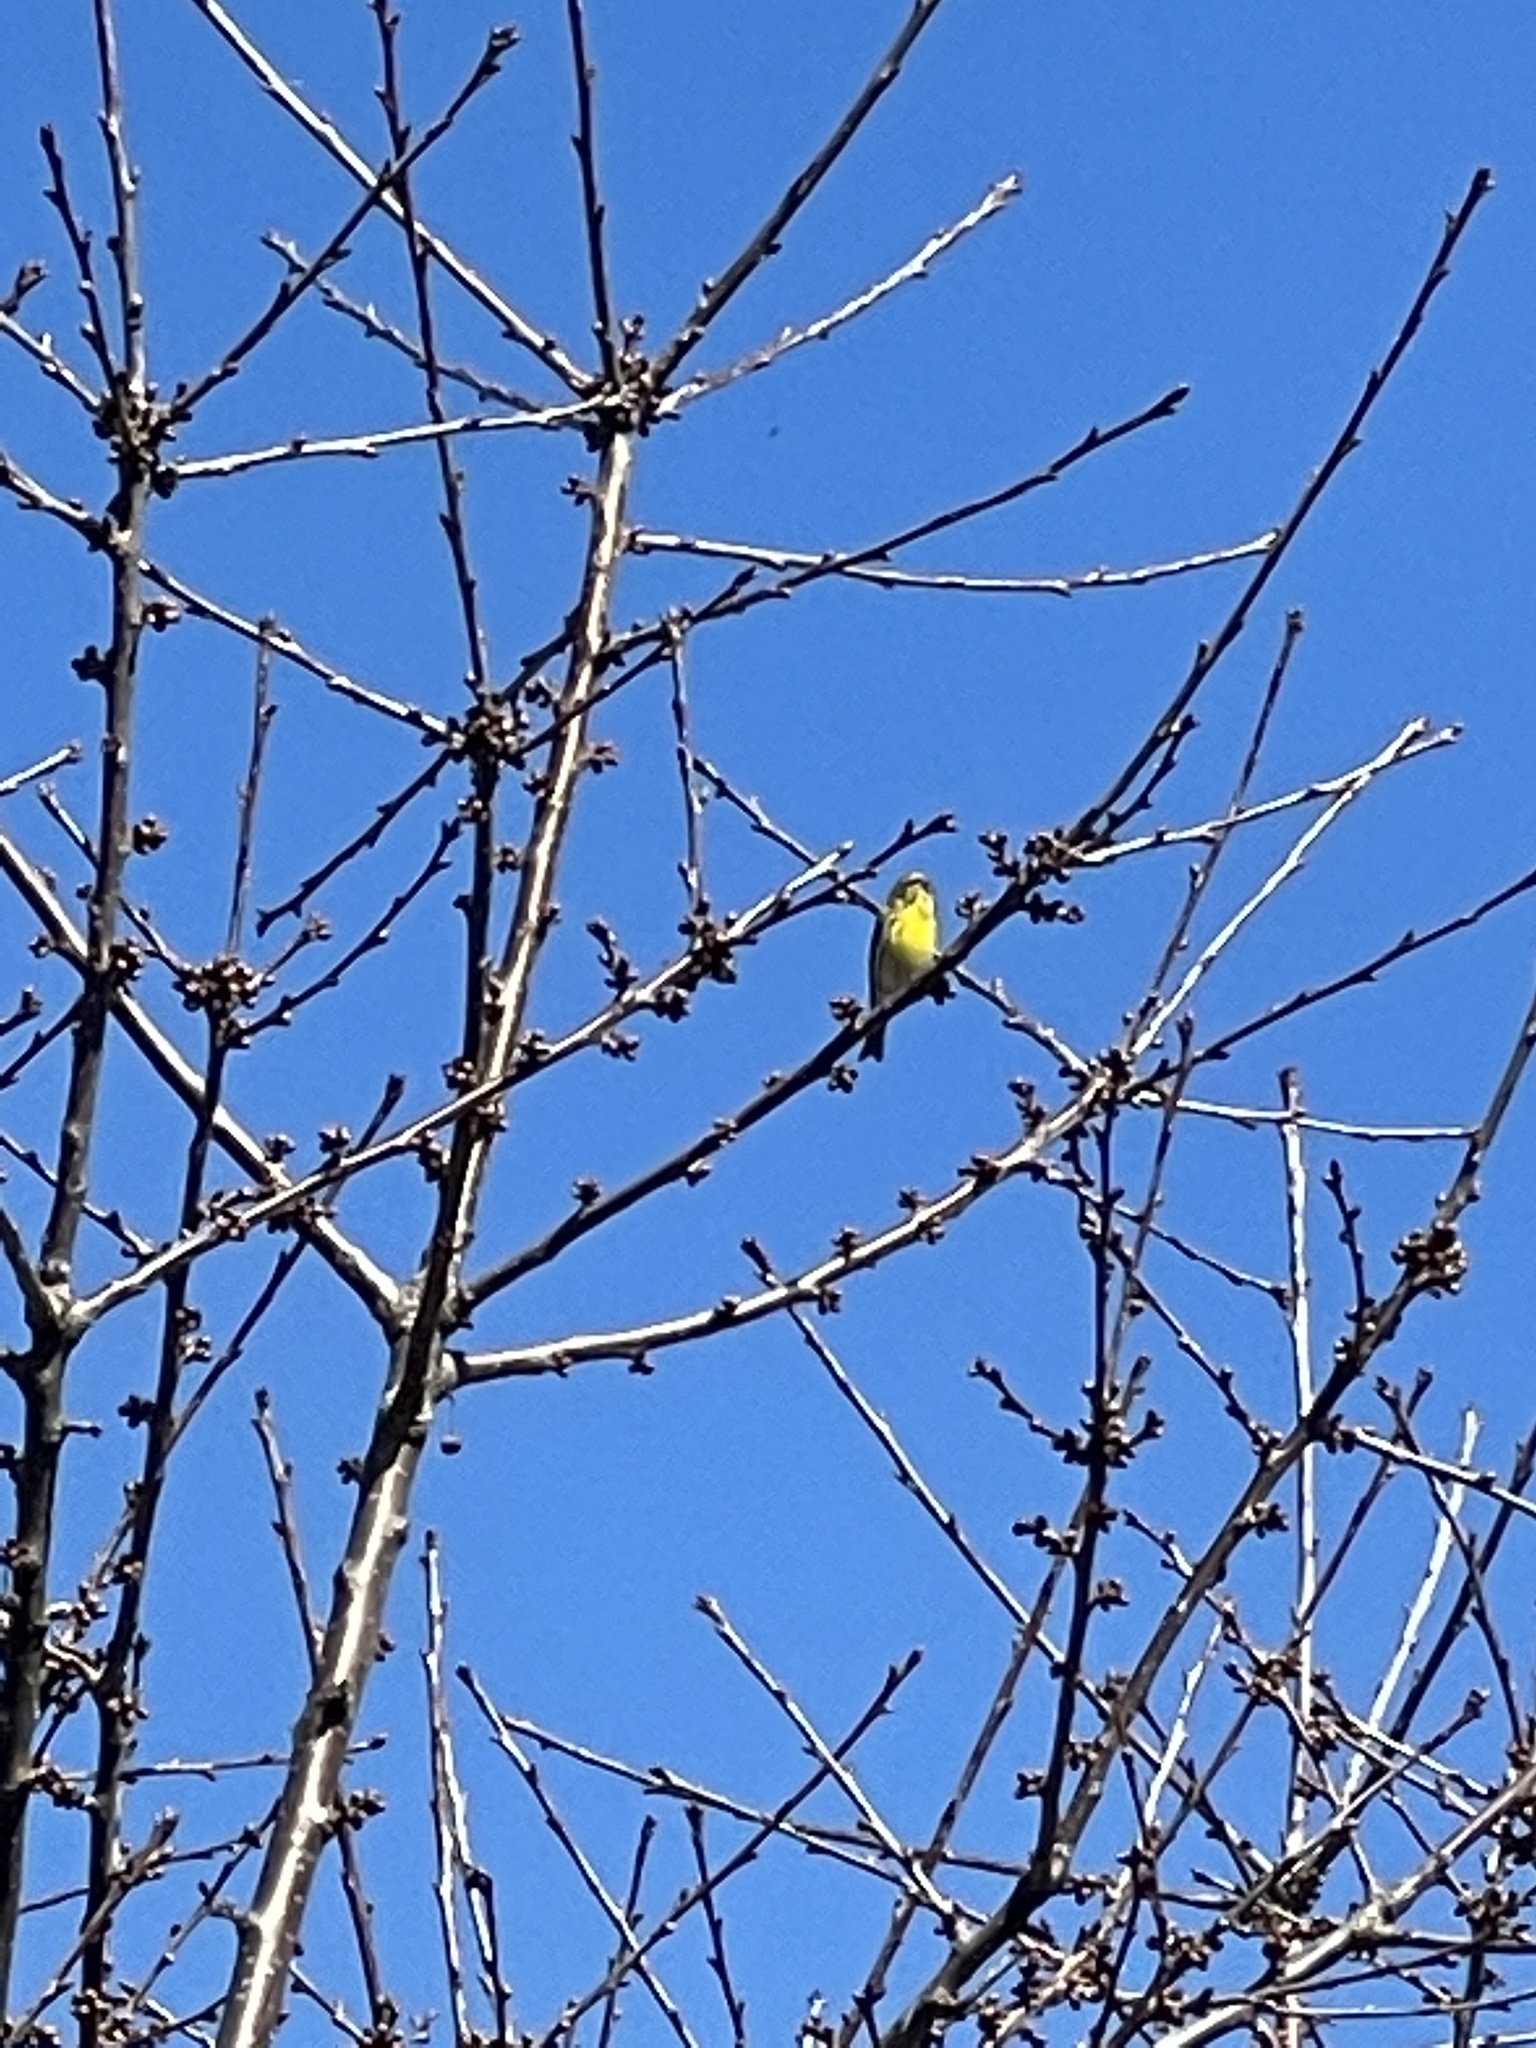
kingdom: Animalia
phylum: Chordata
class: Aves
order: Passeriformes
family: Fringillidae
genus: Serinus
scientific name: Serinus serinus
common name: European serin
